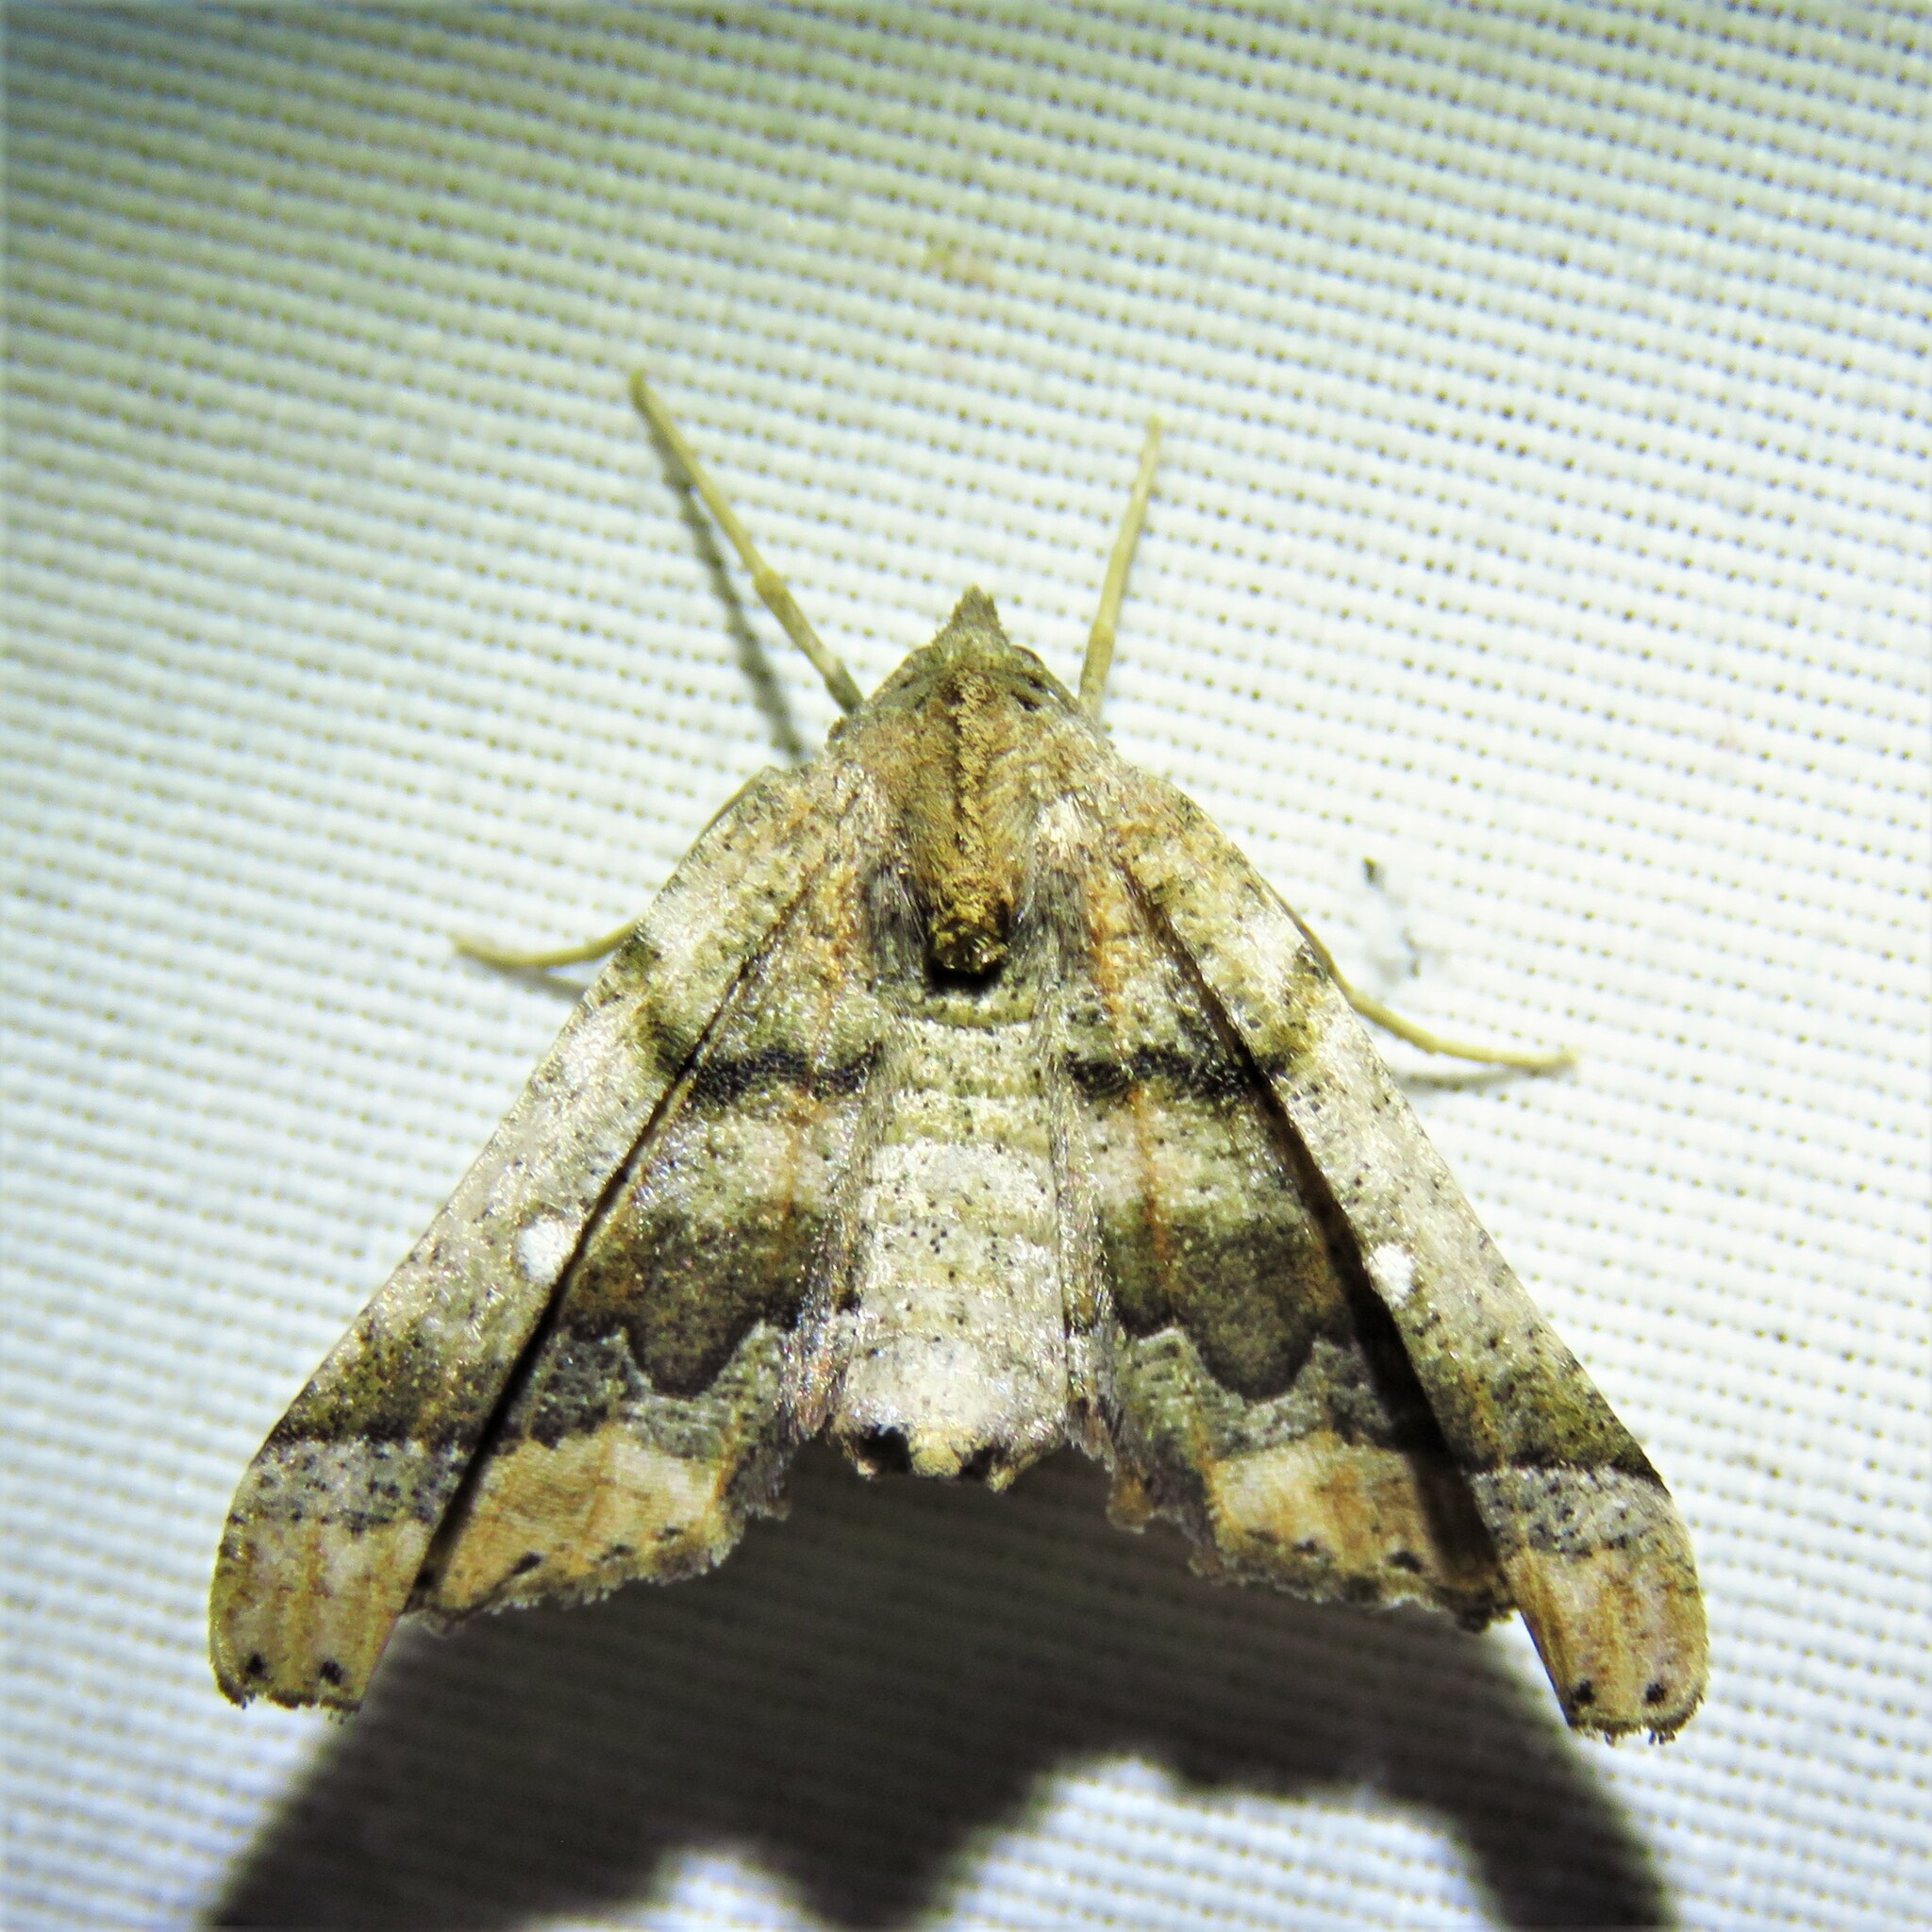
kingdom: Animalia
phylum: Arthropoda
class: Insecta
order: Lepidoptera
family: Geometridae
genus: Pero
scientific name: Pero meskaria
